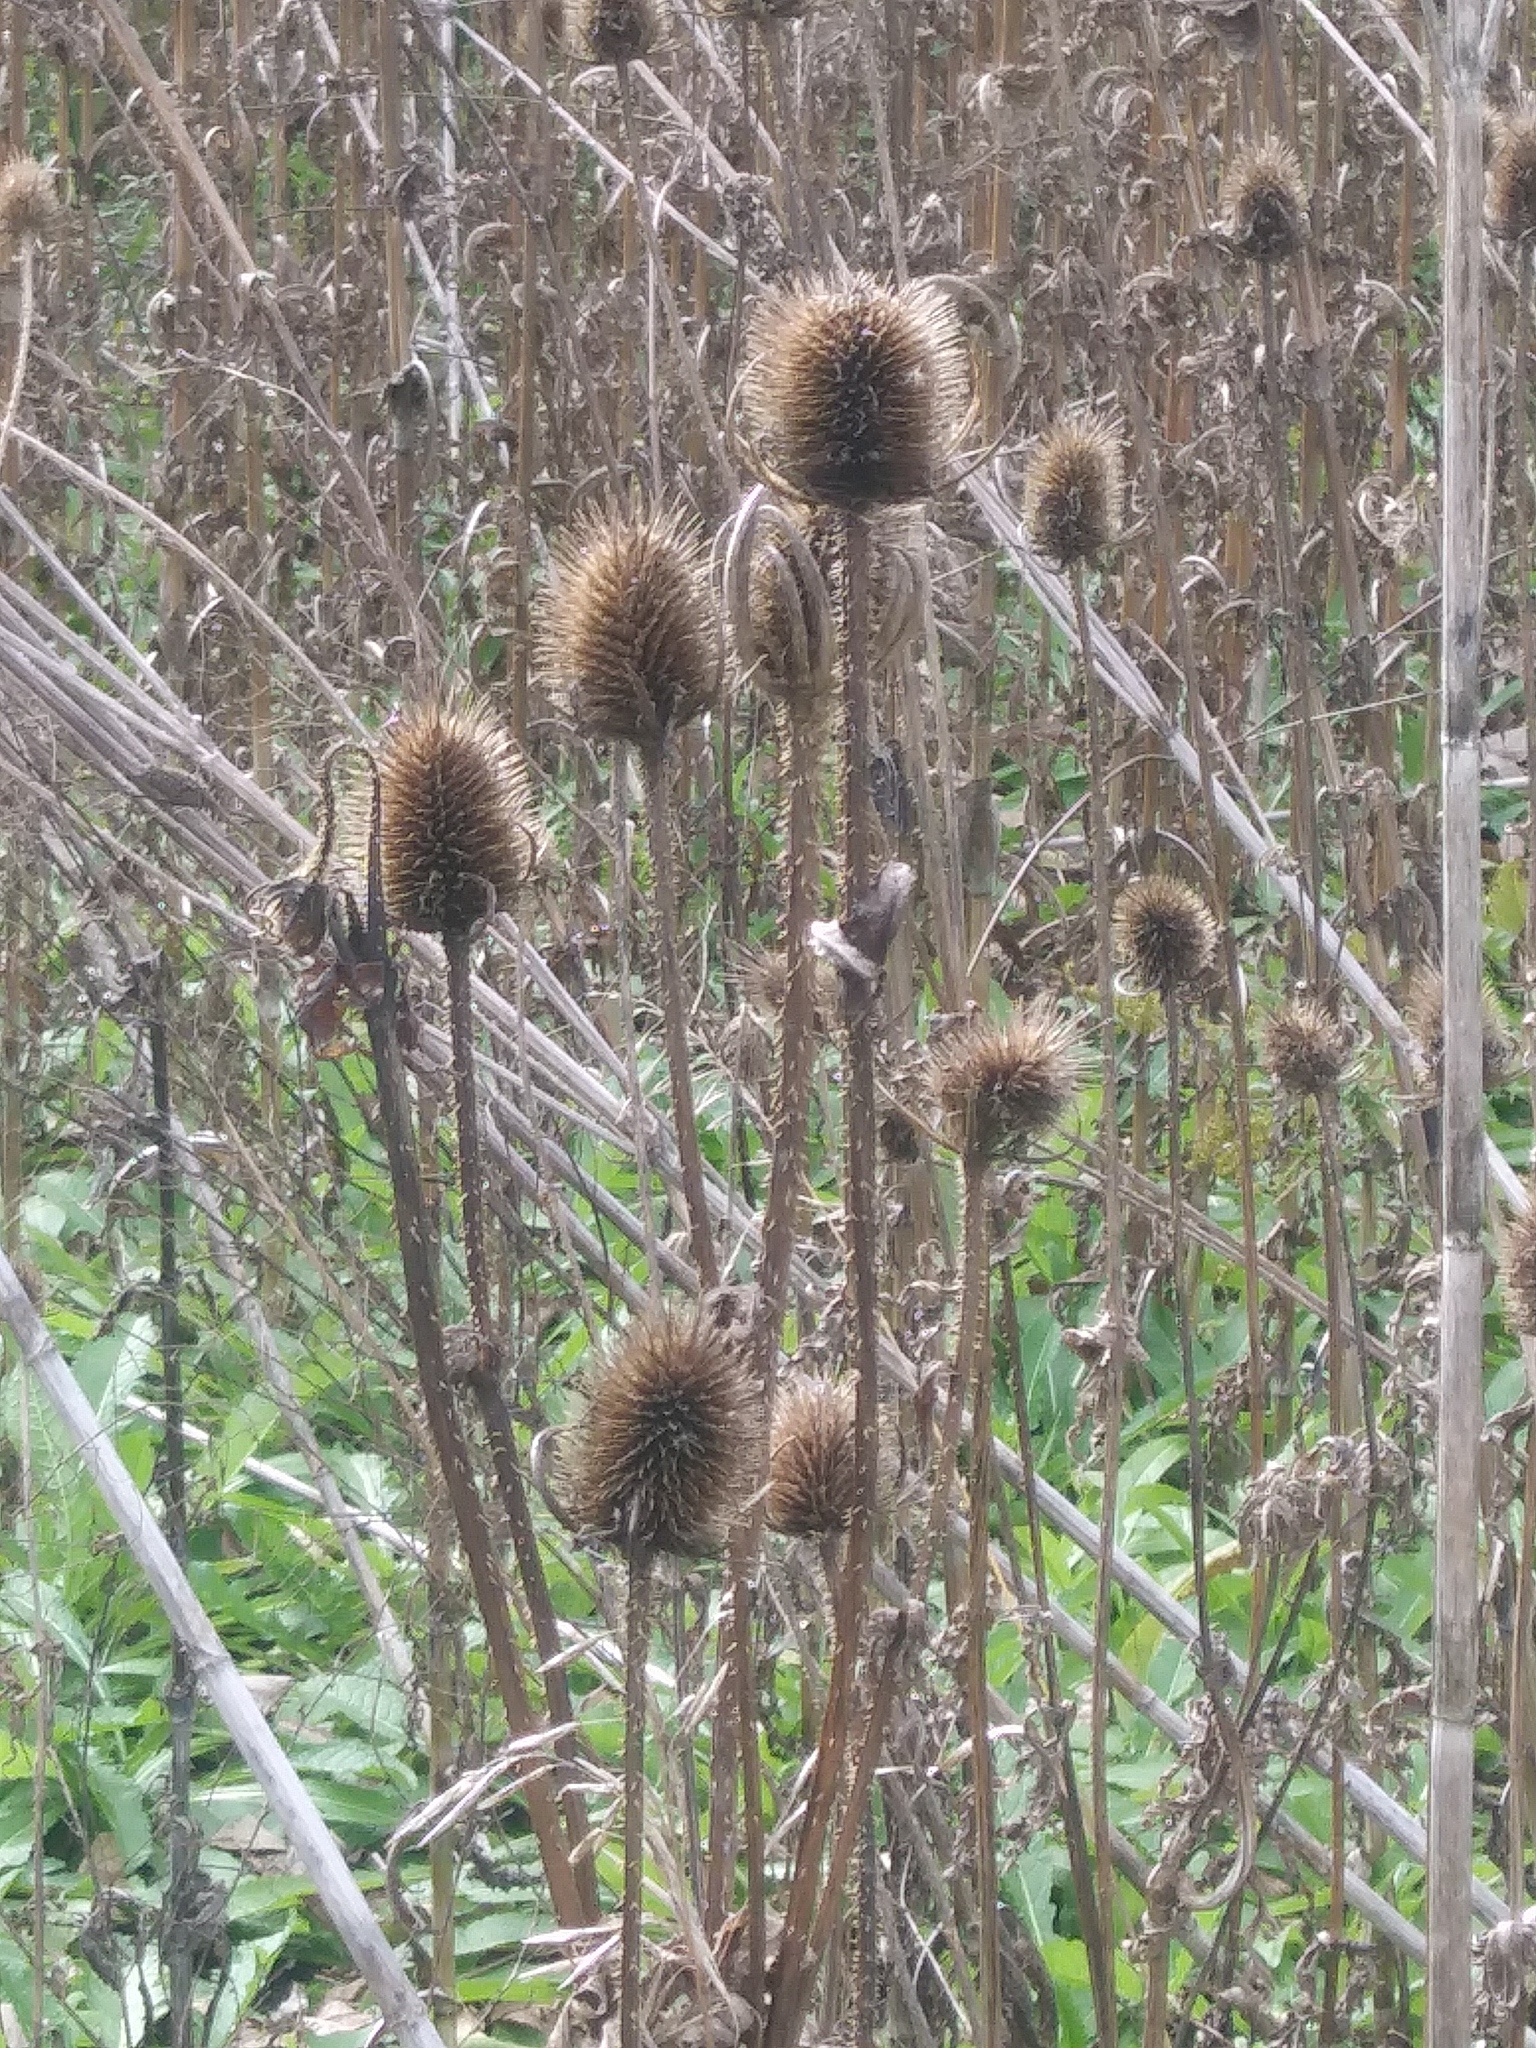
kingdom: Plantae
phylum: Tracheophyta
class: Magnoliopsida
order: Dipsacales
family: Caprifoliaceae
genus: Dipsacus
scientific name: Dipsacus laciniatus
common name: Cut-leaved teasel
